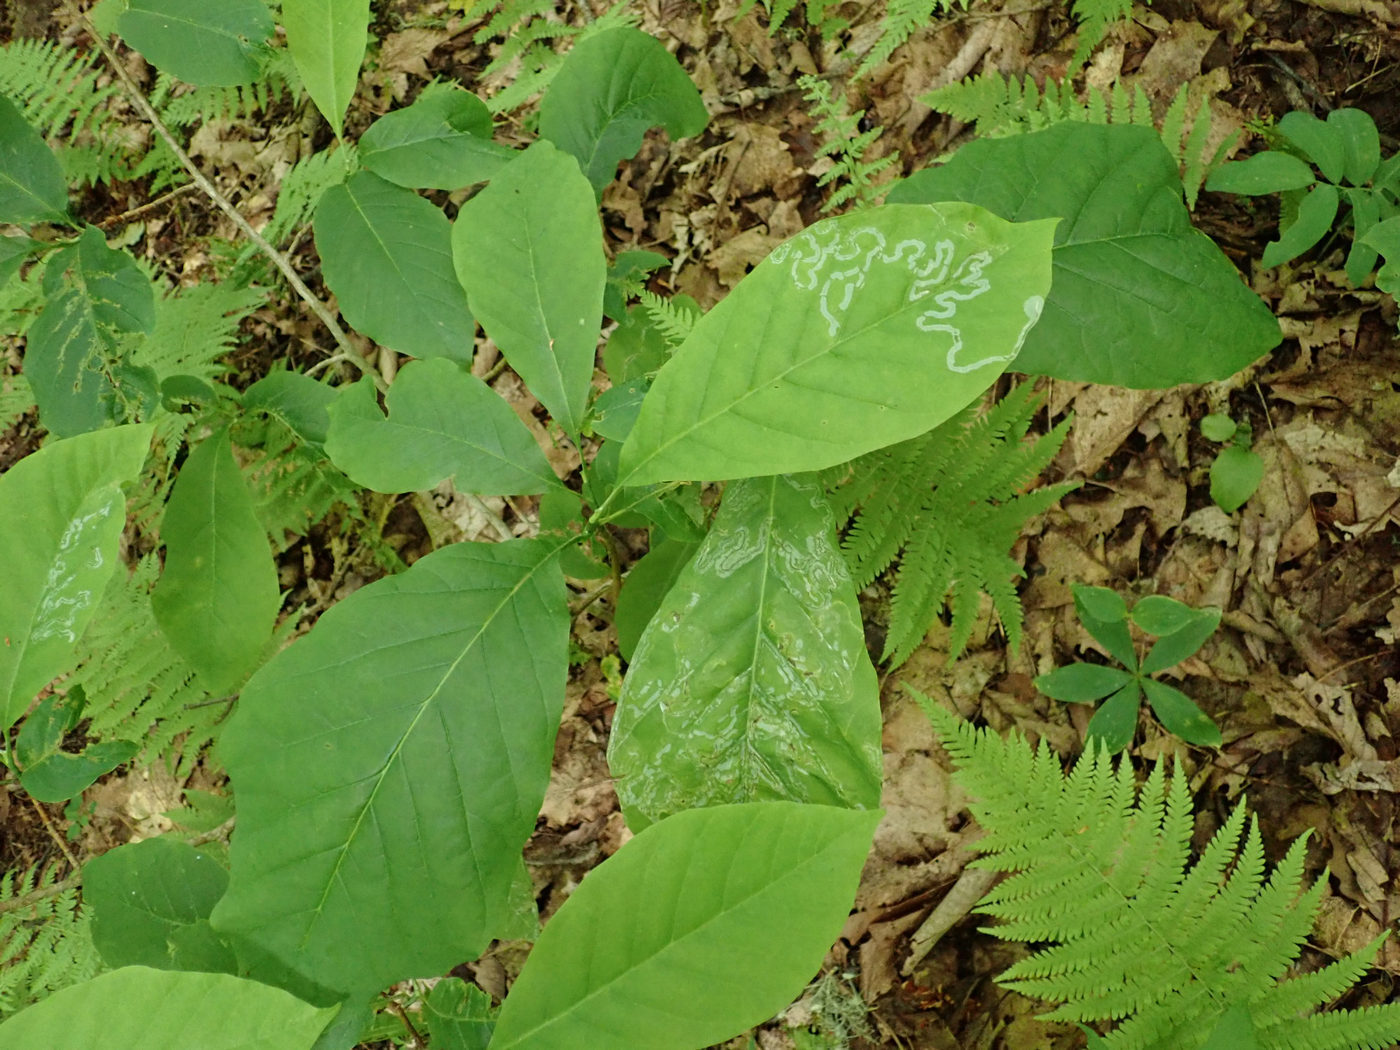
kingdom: Animalia
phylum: Arthropoda
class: Insecta
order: Lepidoptera
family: Gracillariidae
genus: Phyllocnistis
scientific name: Phyllocnistis liriodendronella
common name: Tulip tree leaf miner
